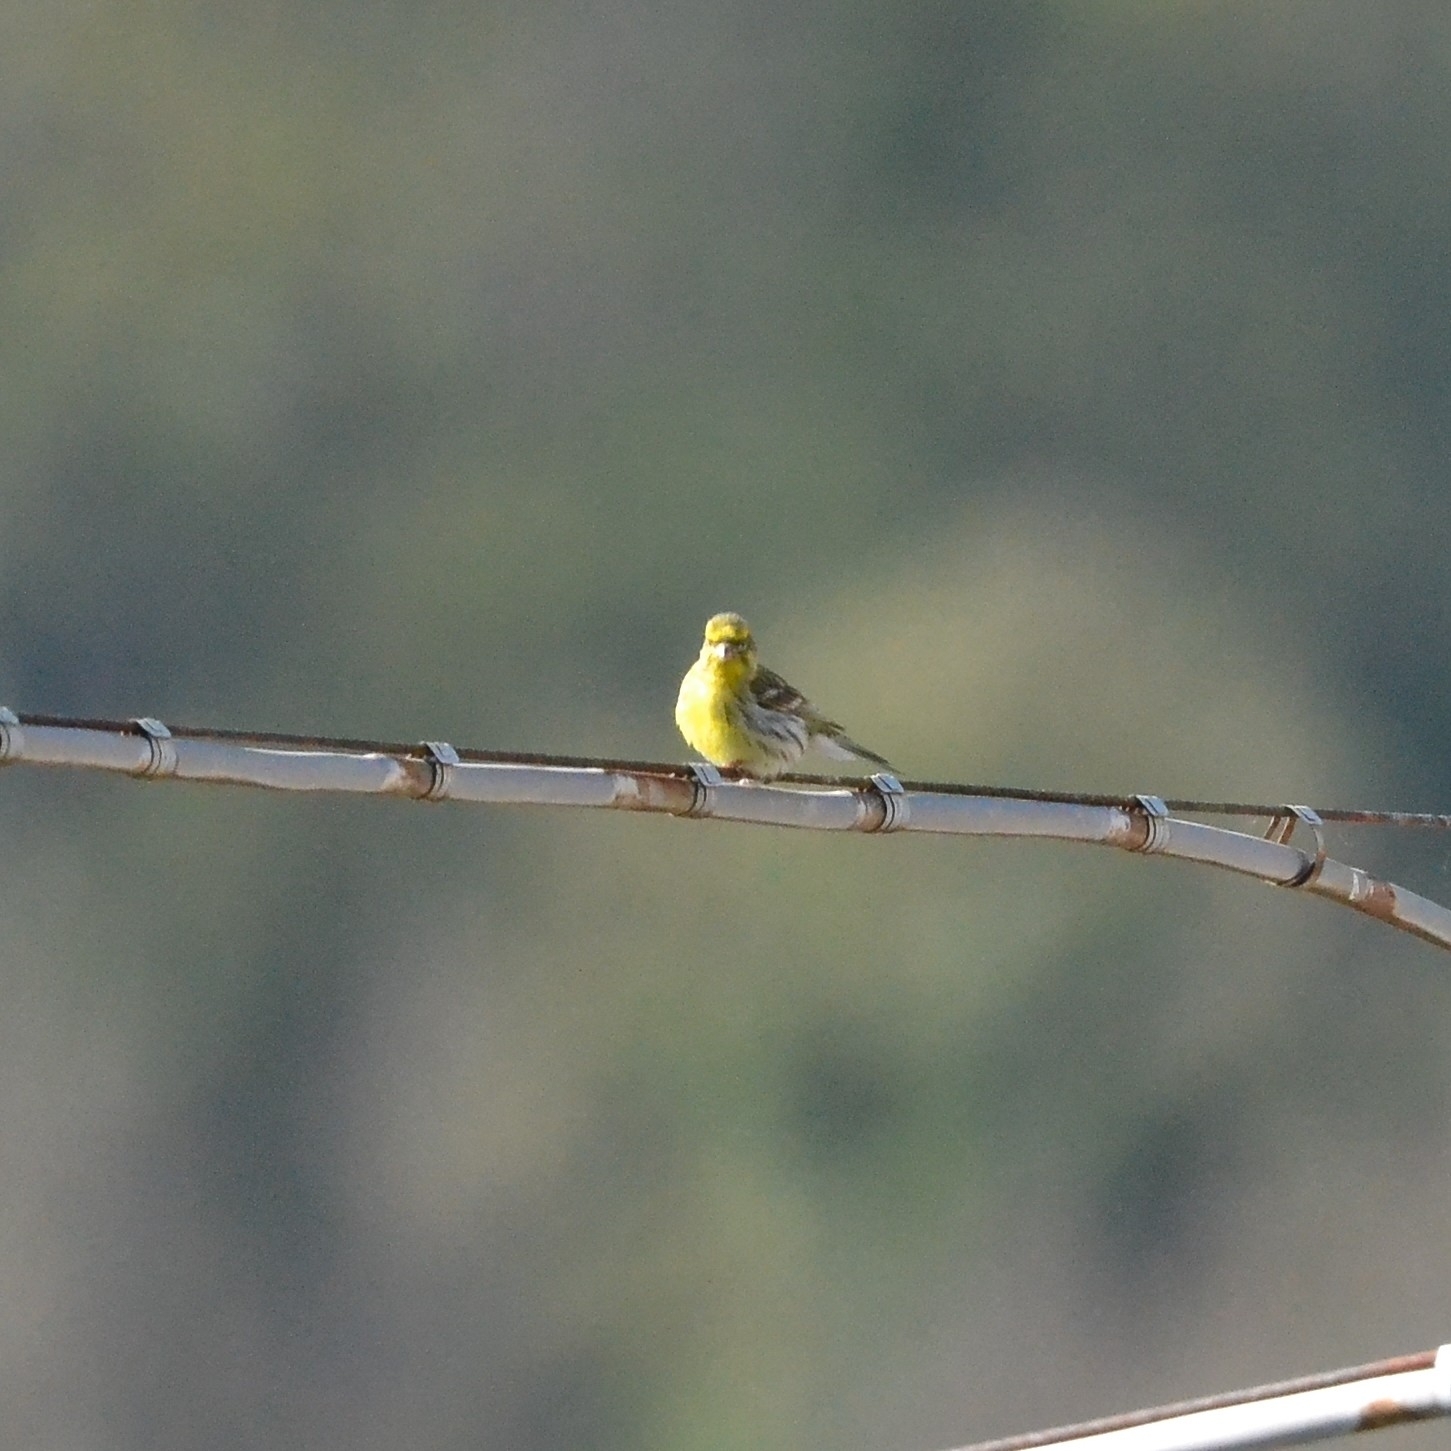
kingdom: Animalia
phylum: Chordata
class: Aves
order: Passeriformes
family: Fringillidae
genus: Serinus
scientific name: Serinus serinus
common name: European serin
